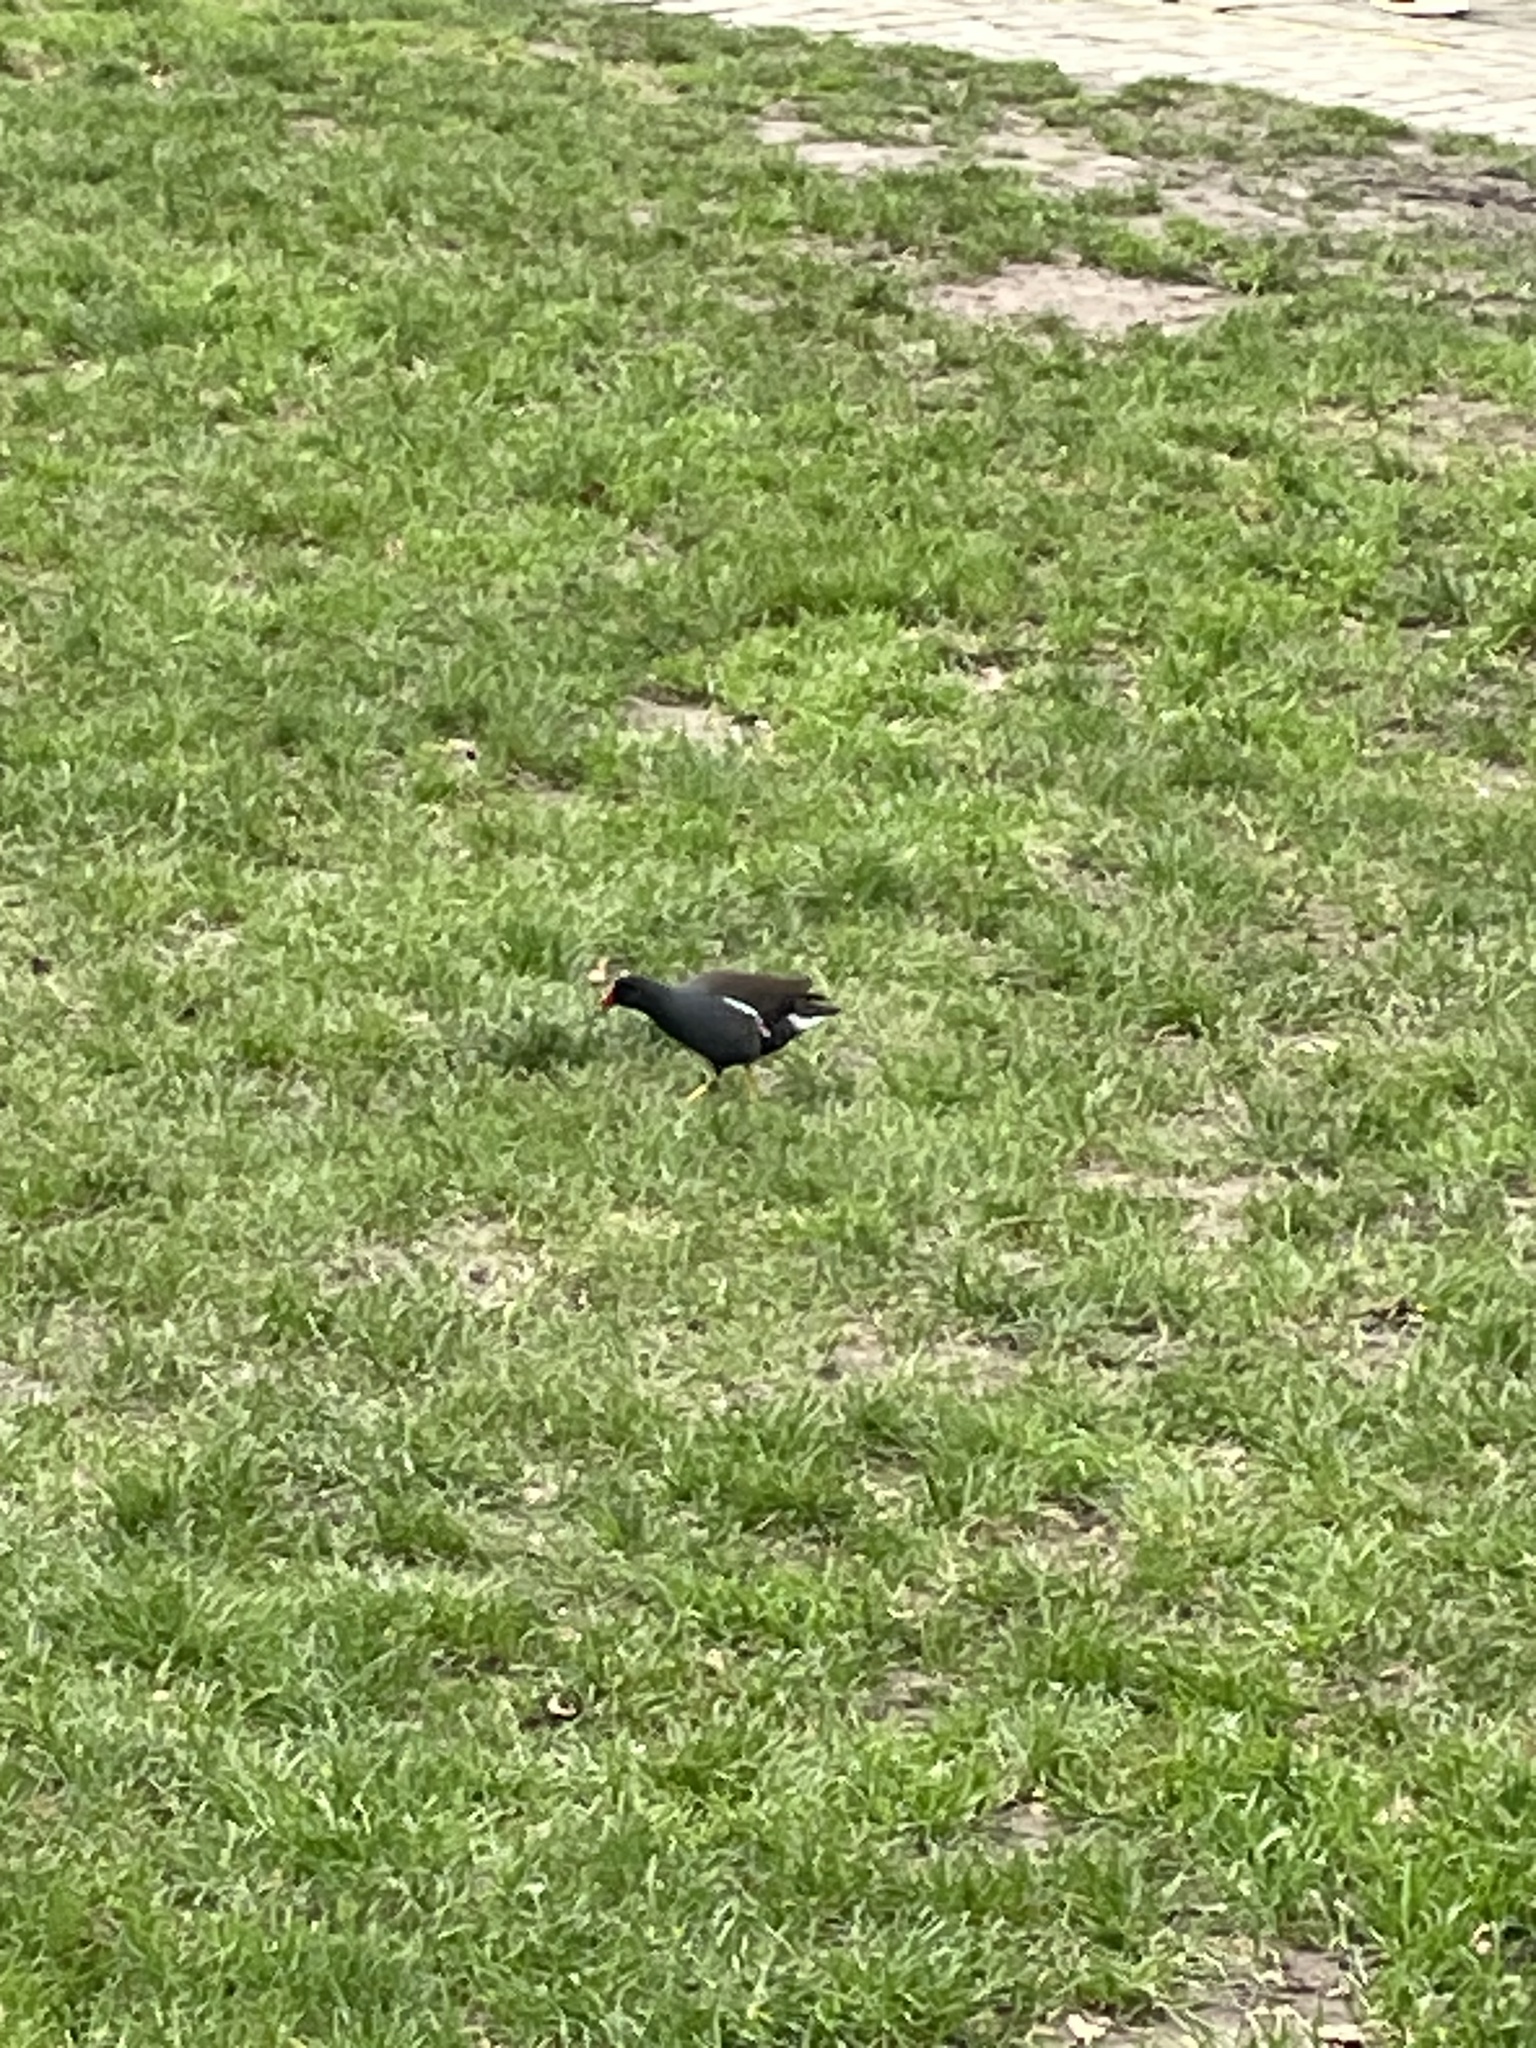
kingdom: Animalia
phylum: Chordata
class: Aves
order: Gruiformes
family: Rallidae
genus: Gallinula
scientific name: Gallinula chloropus
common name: Common moorhen
